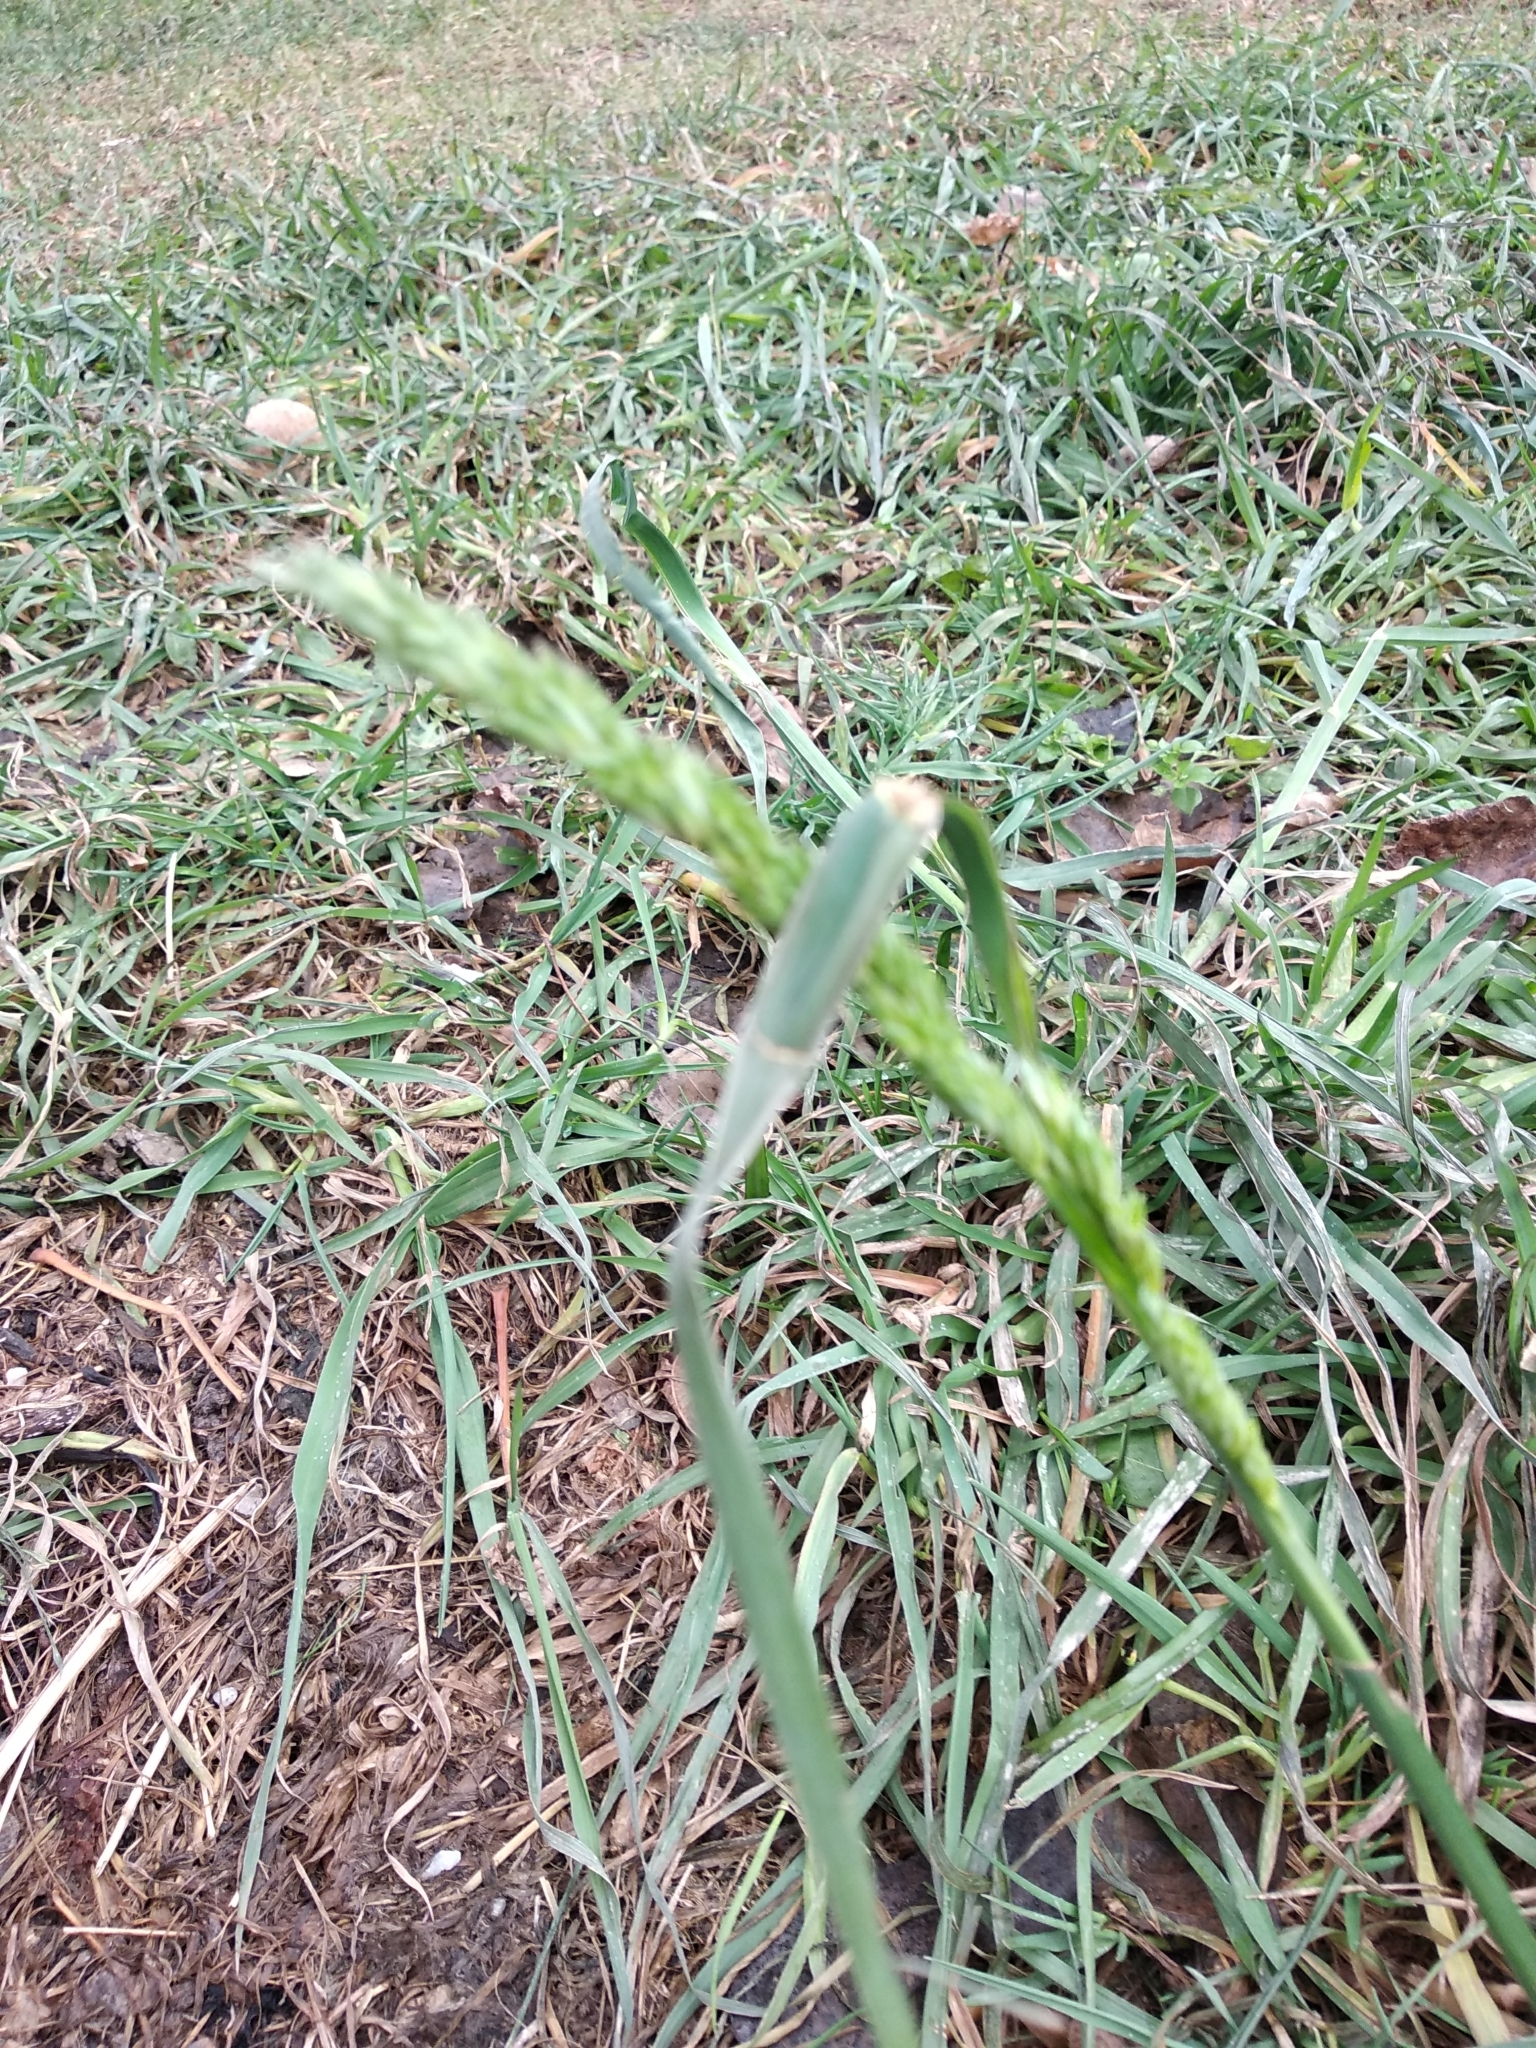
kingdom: Plantae
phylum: Tracheophyta
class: Liliopsida
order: Poales
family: Poaceae
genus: Dactylis
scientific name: Dactylis glomerata
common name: Orchardgrass
